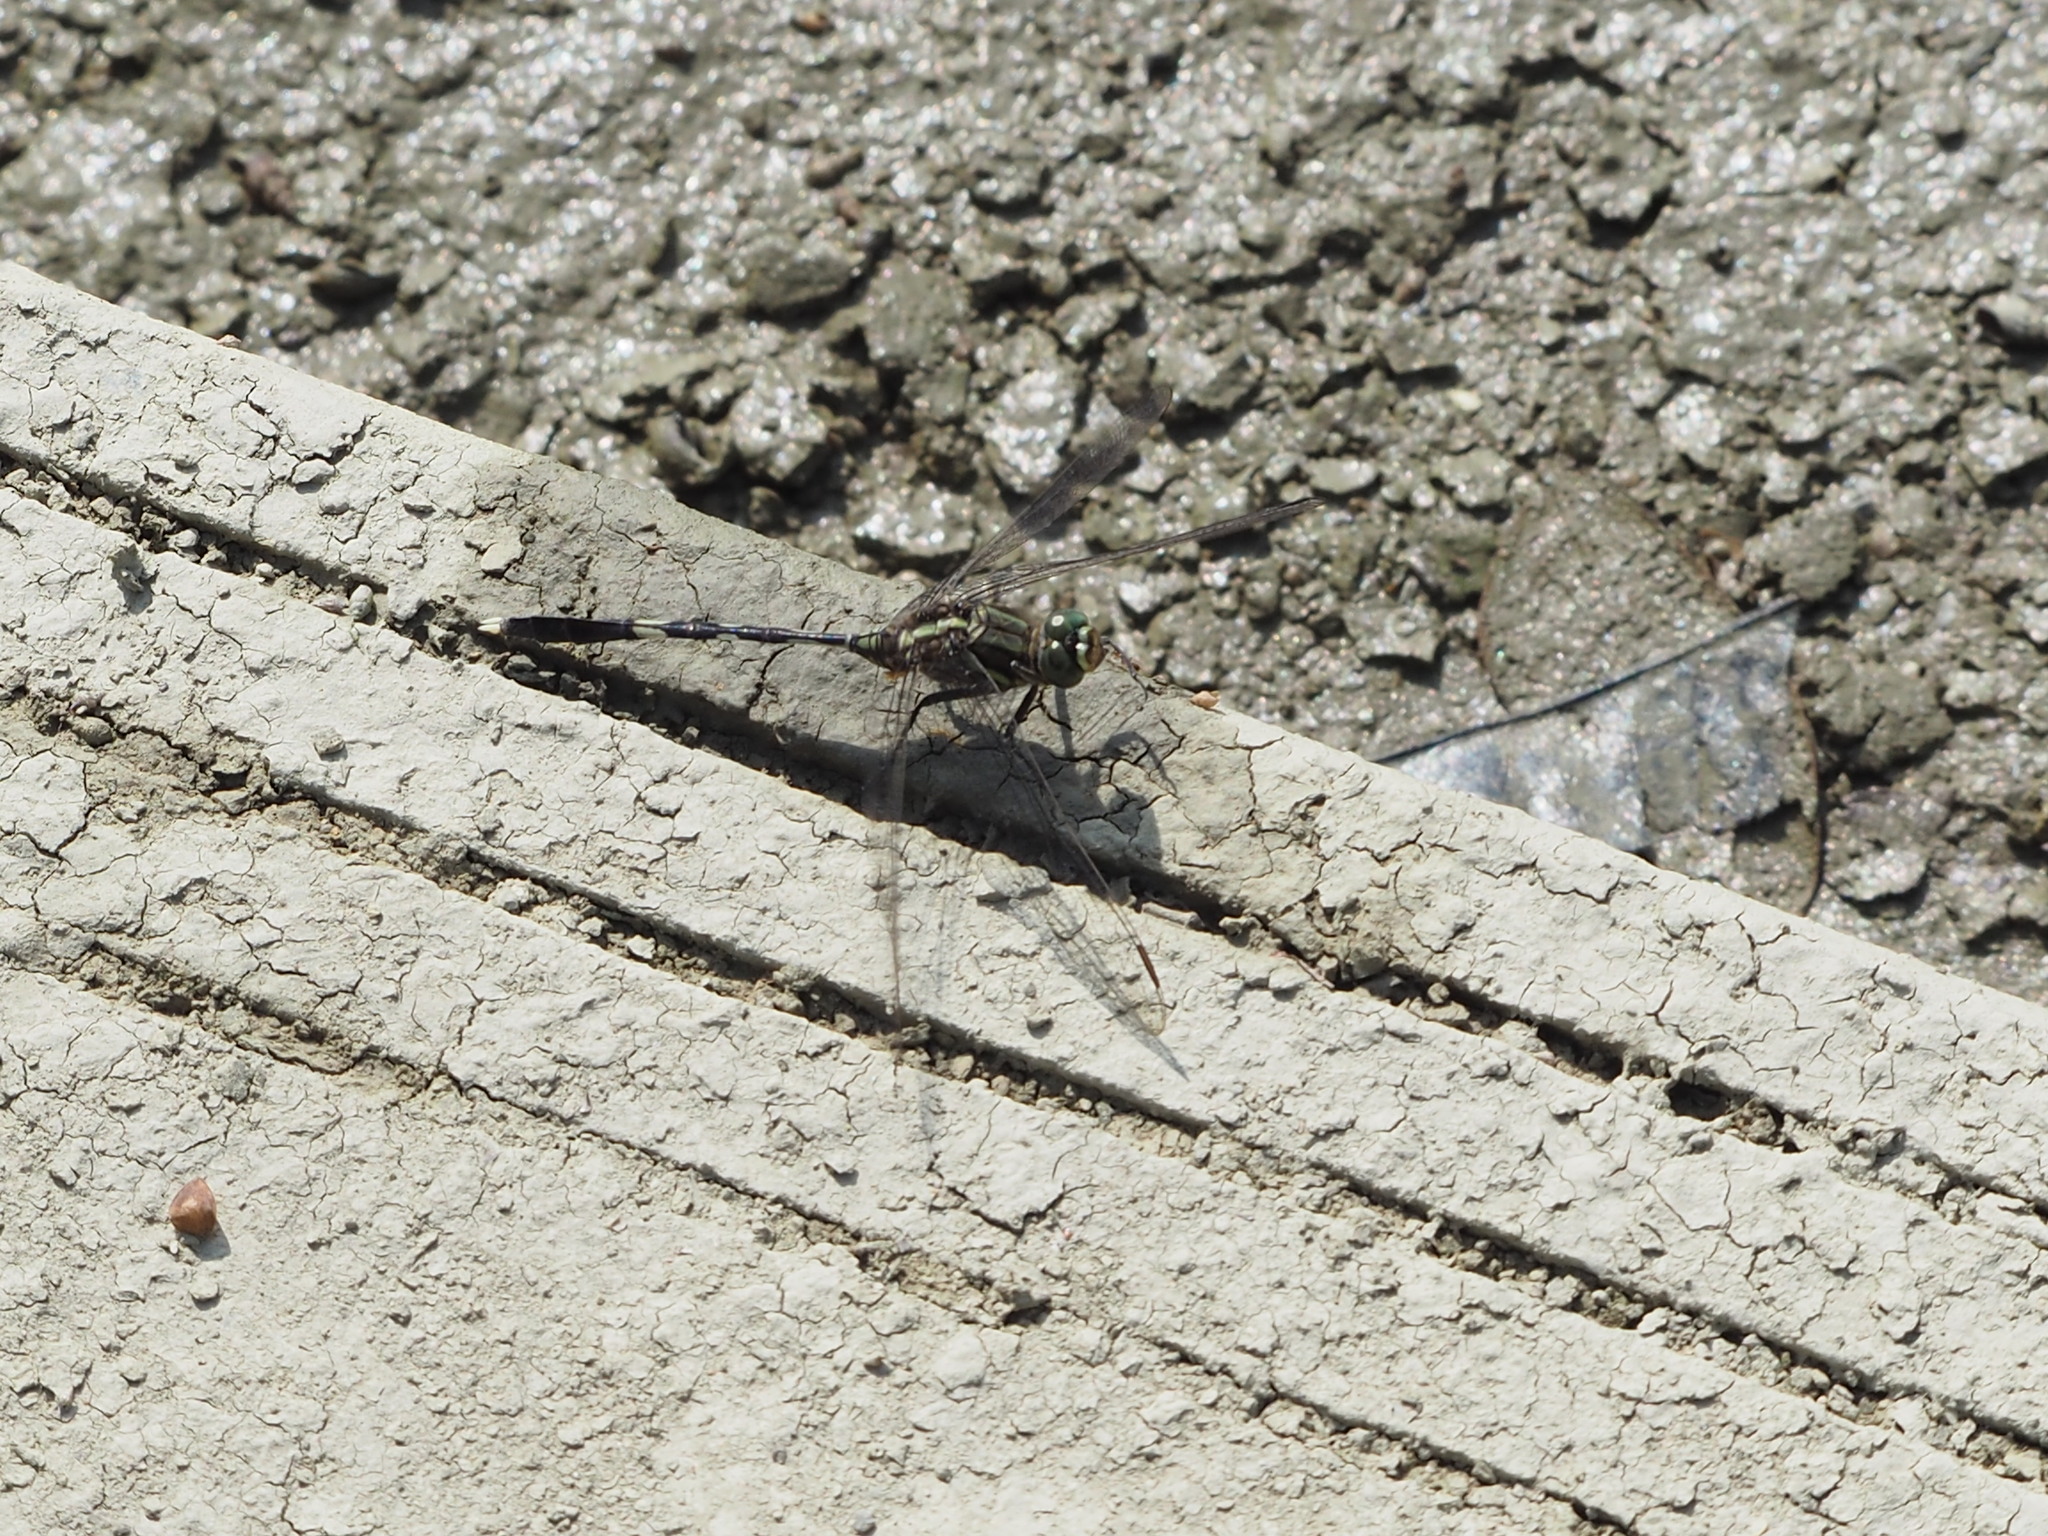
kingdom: Animalia
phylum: Arthropoda
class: Insecta
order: Odonata
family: Libellulidae
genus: Orthetrum
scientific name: Orthetrum sabina
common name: Slender skimmer
